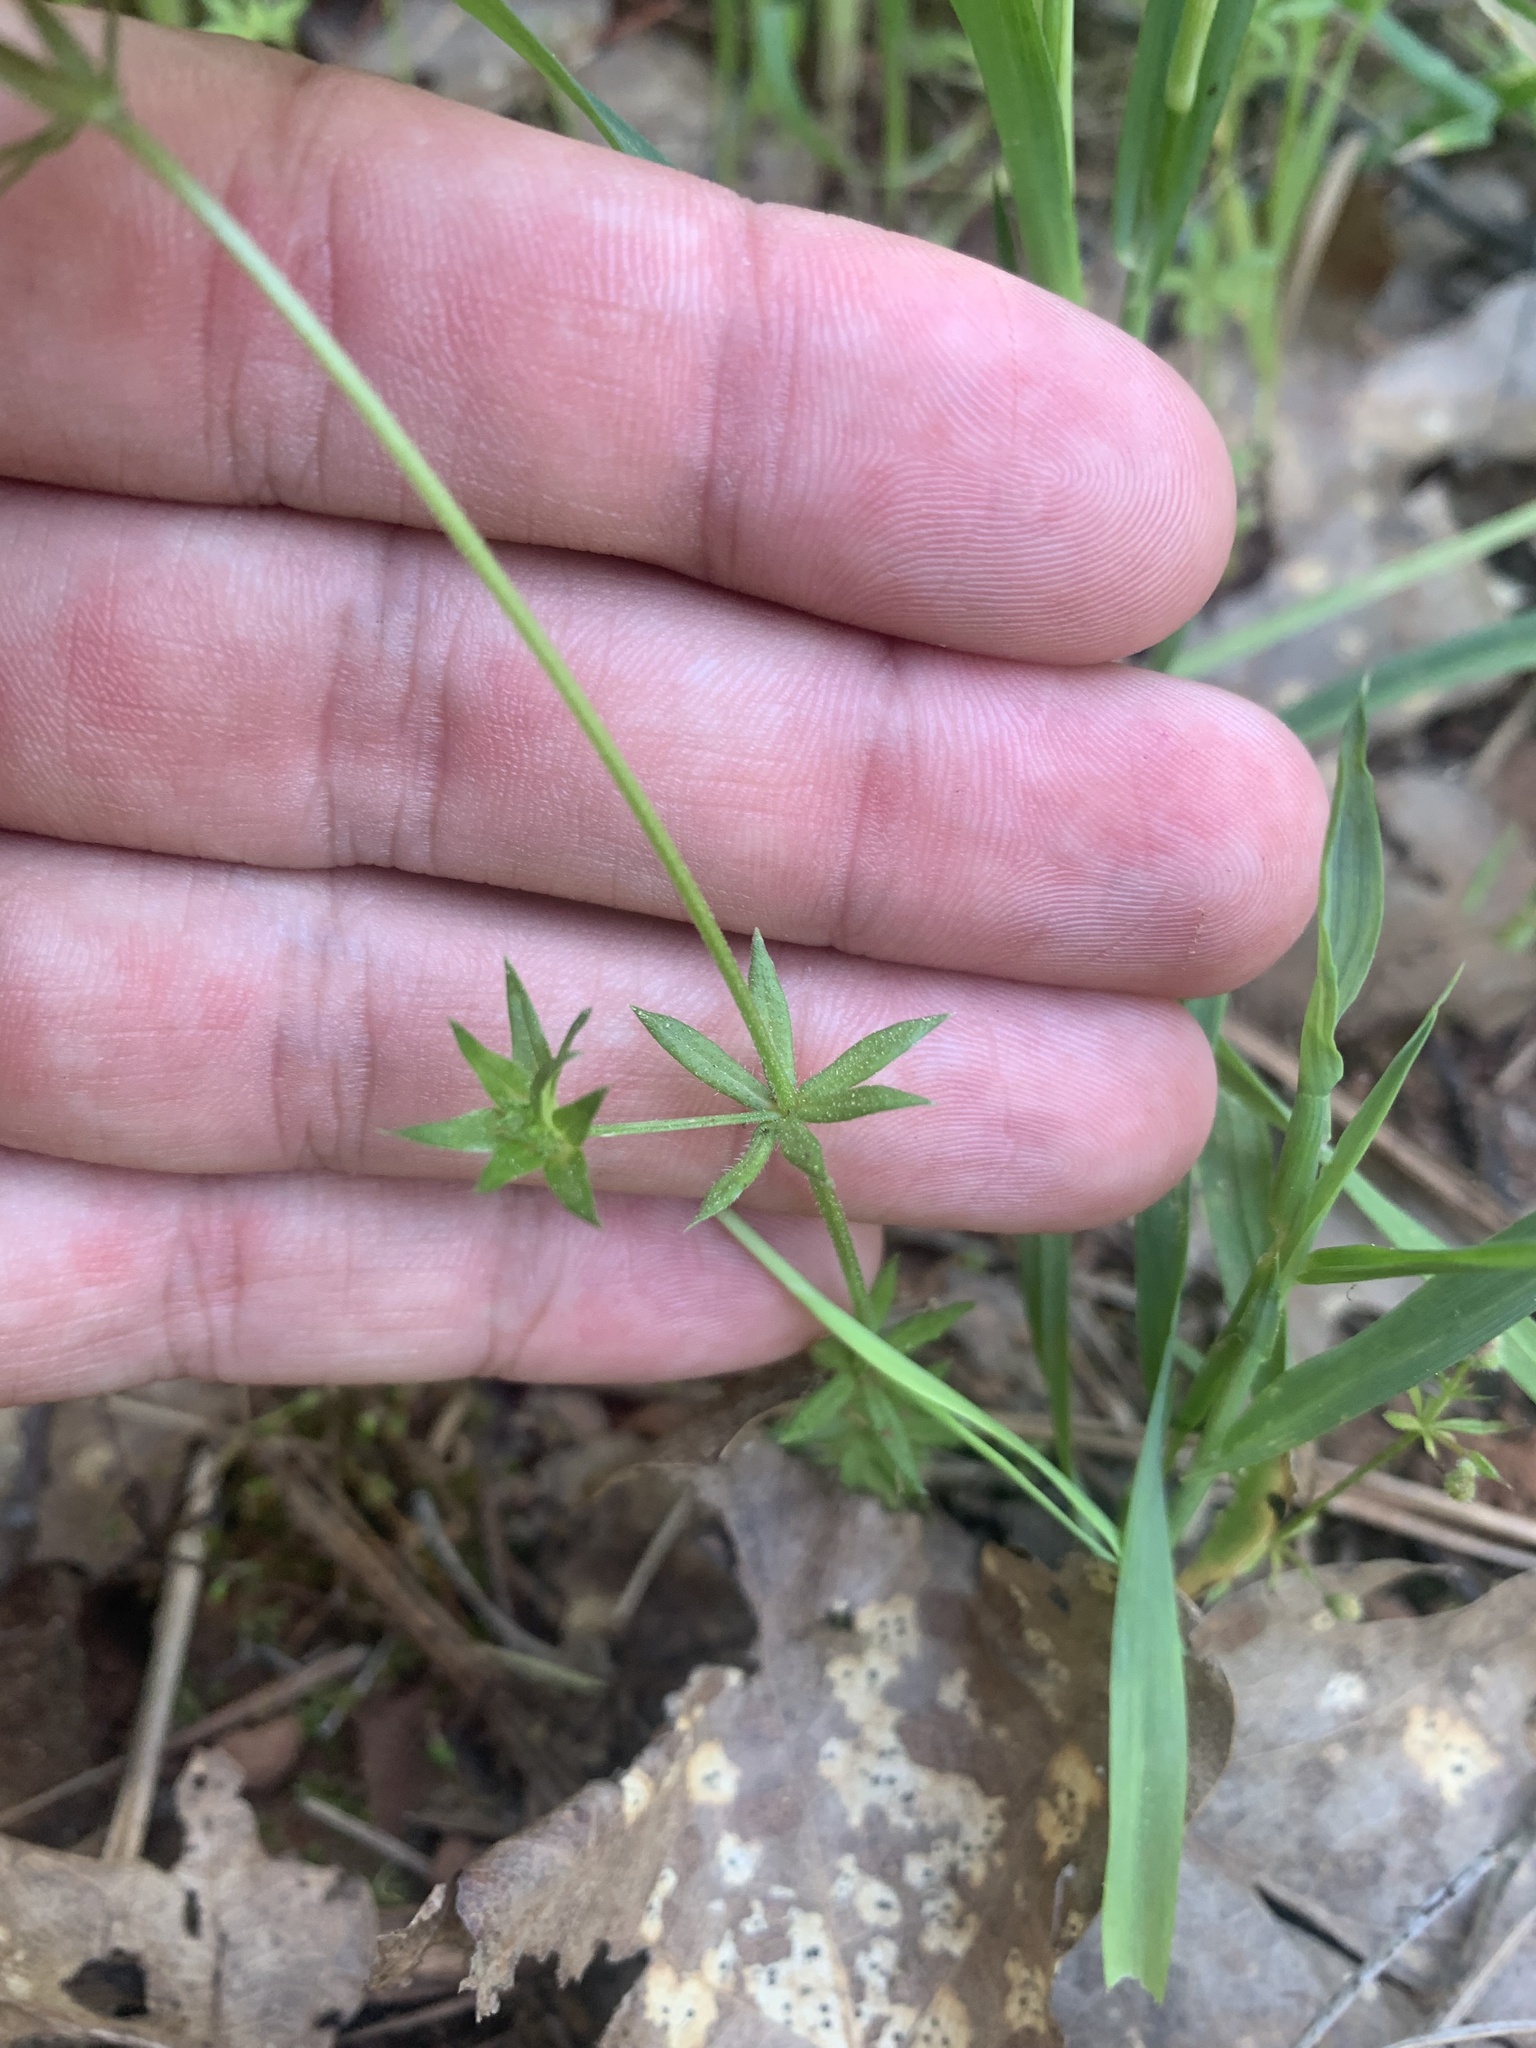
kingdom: Plantae
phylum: Tracheophyta
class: Magnoliopsida
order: Gentianales
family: Rubiaceae
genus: Sherardia
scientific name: Sherardia arvensis
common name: Field madder
